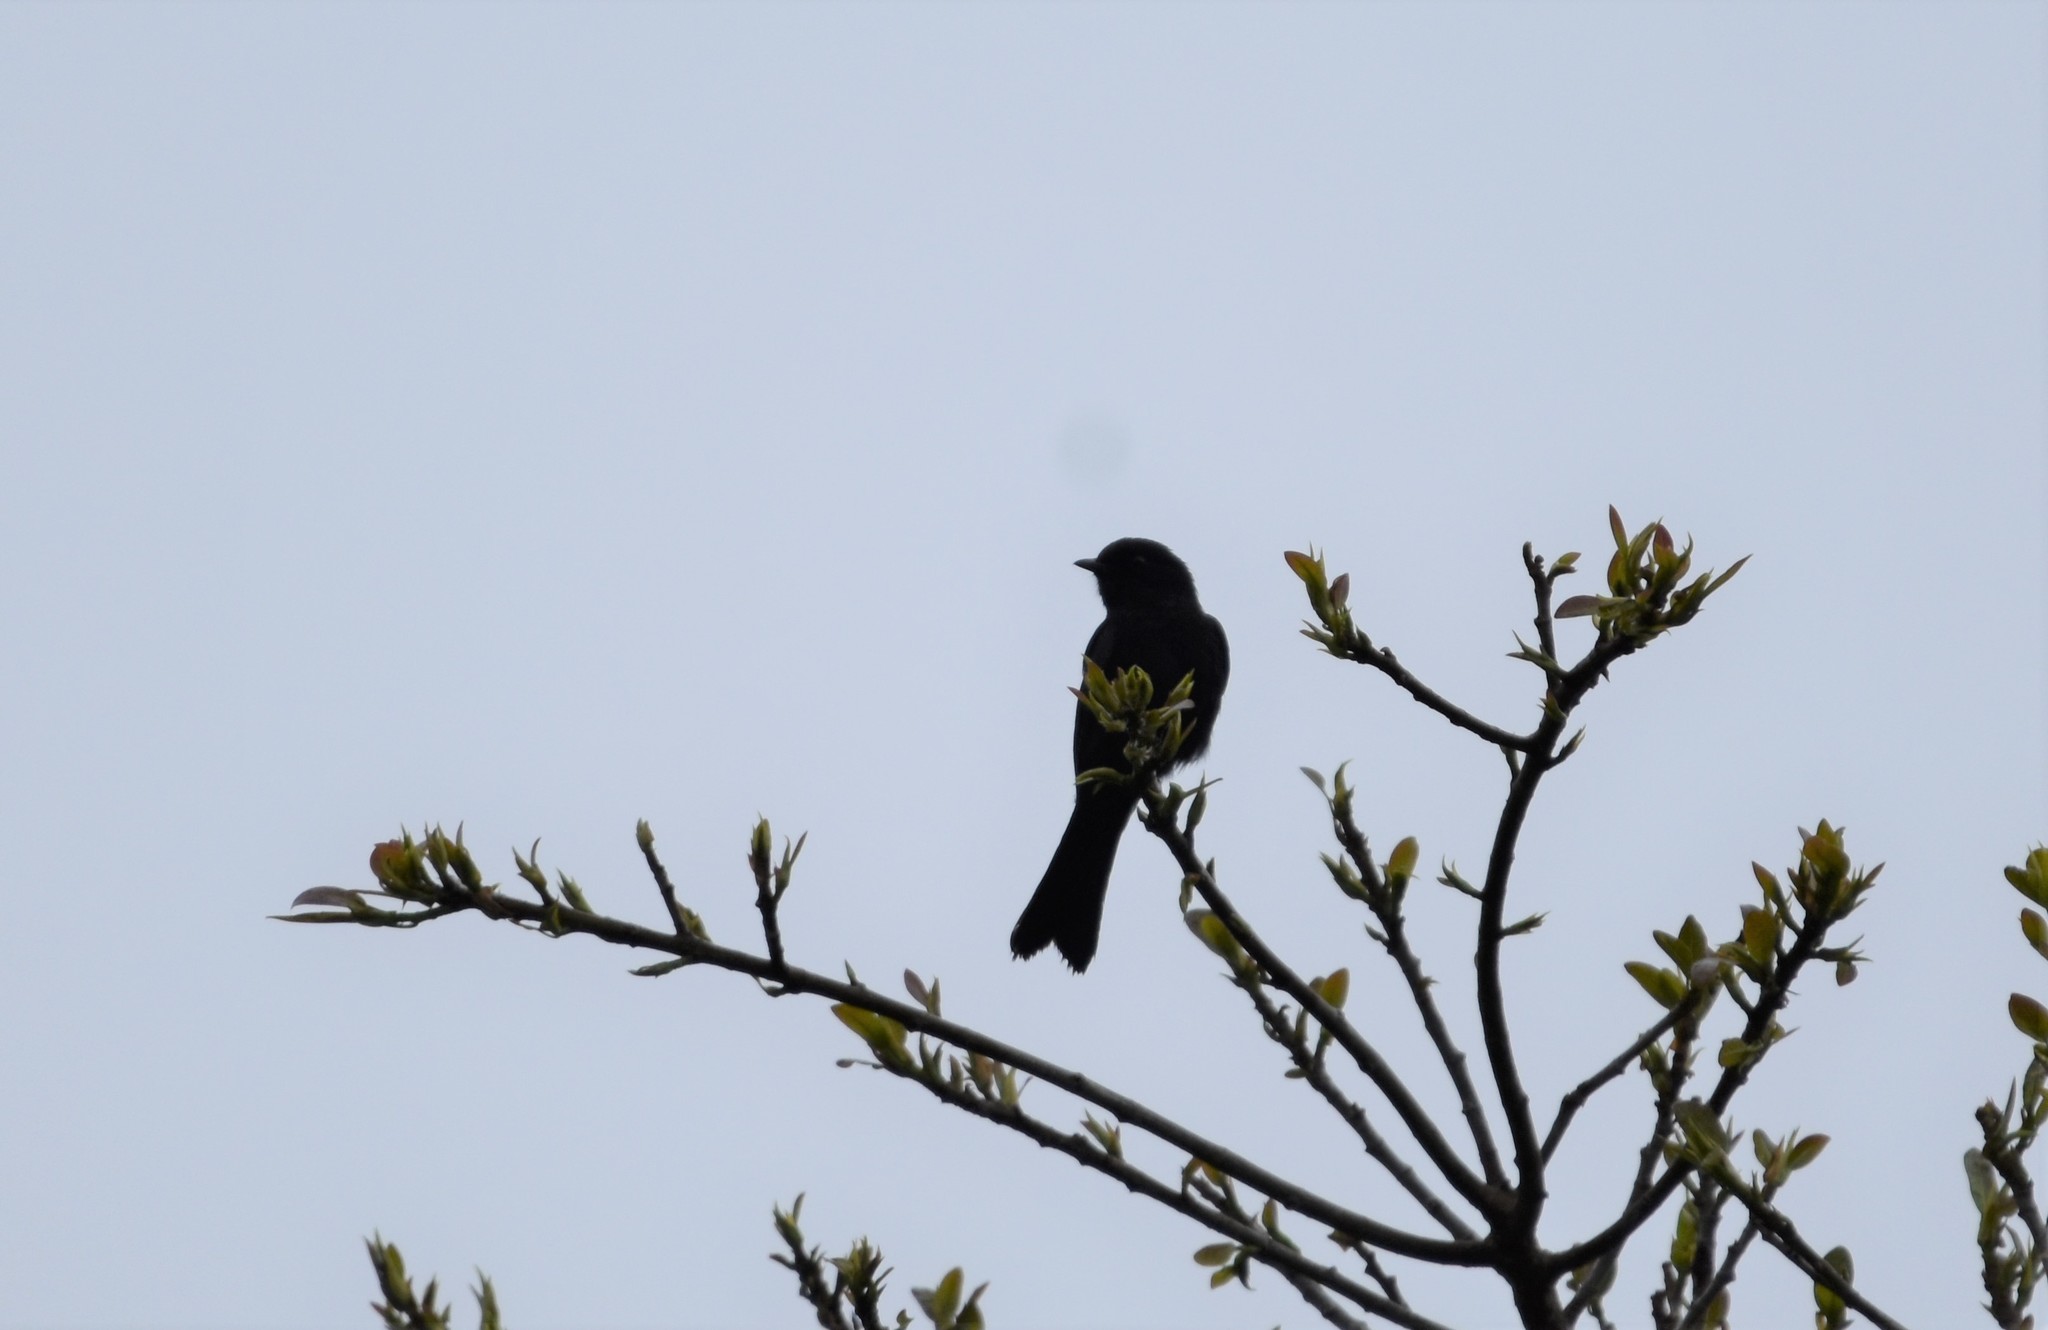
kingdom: Animalia
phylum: Chordata
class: Aves
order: Passeriformes
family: Muscicapidae
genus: Melaenornis
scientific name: Melaenornis pammelaina
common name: Southern black flycatcher
